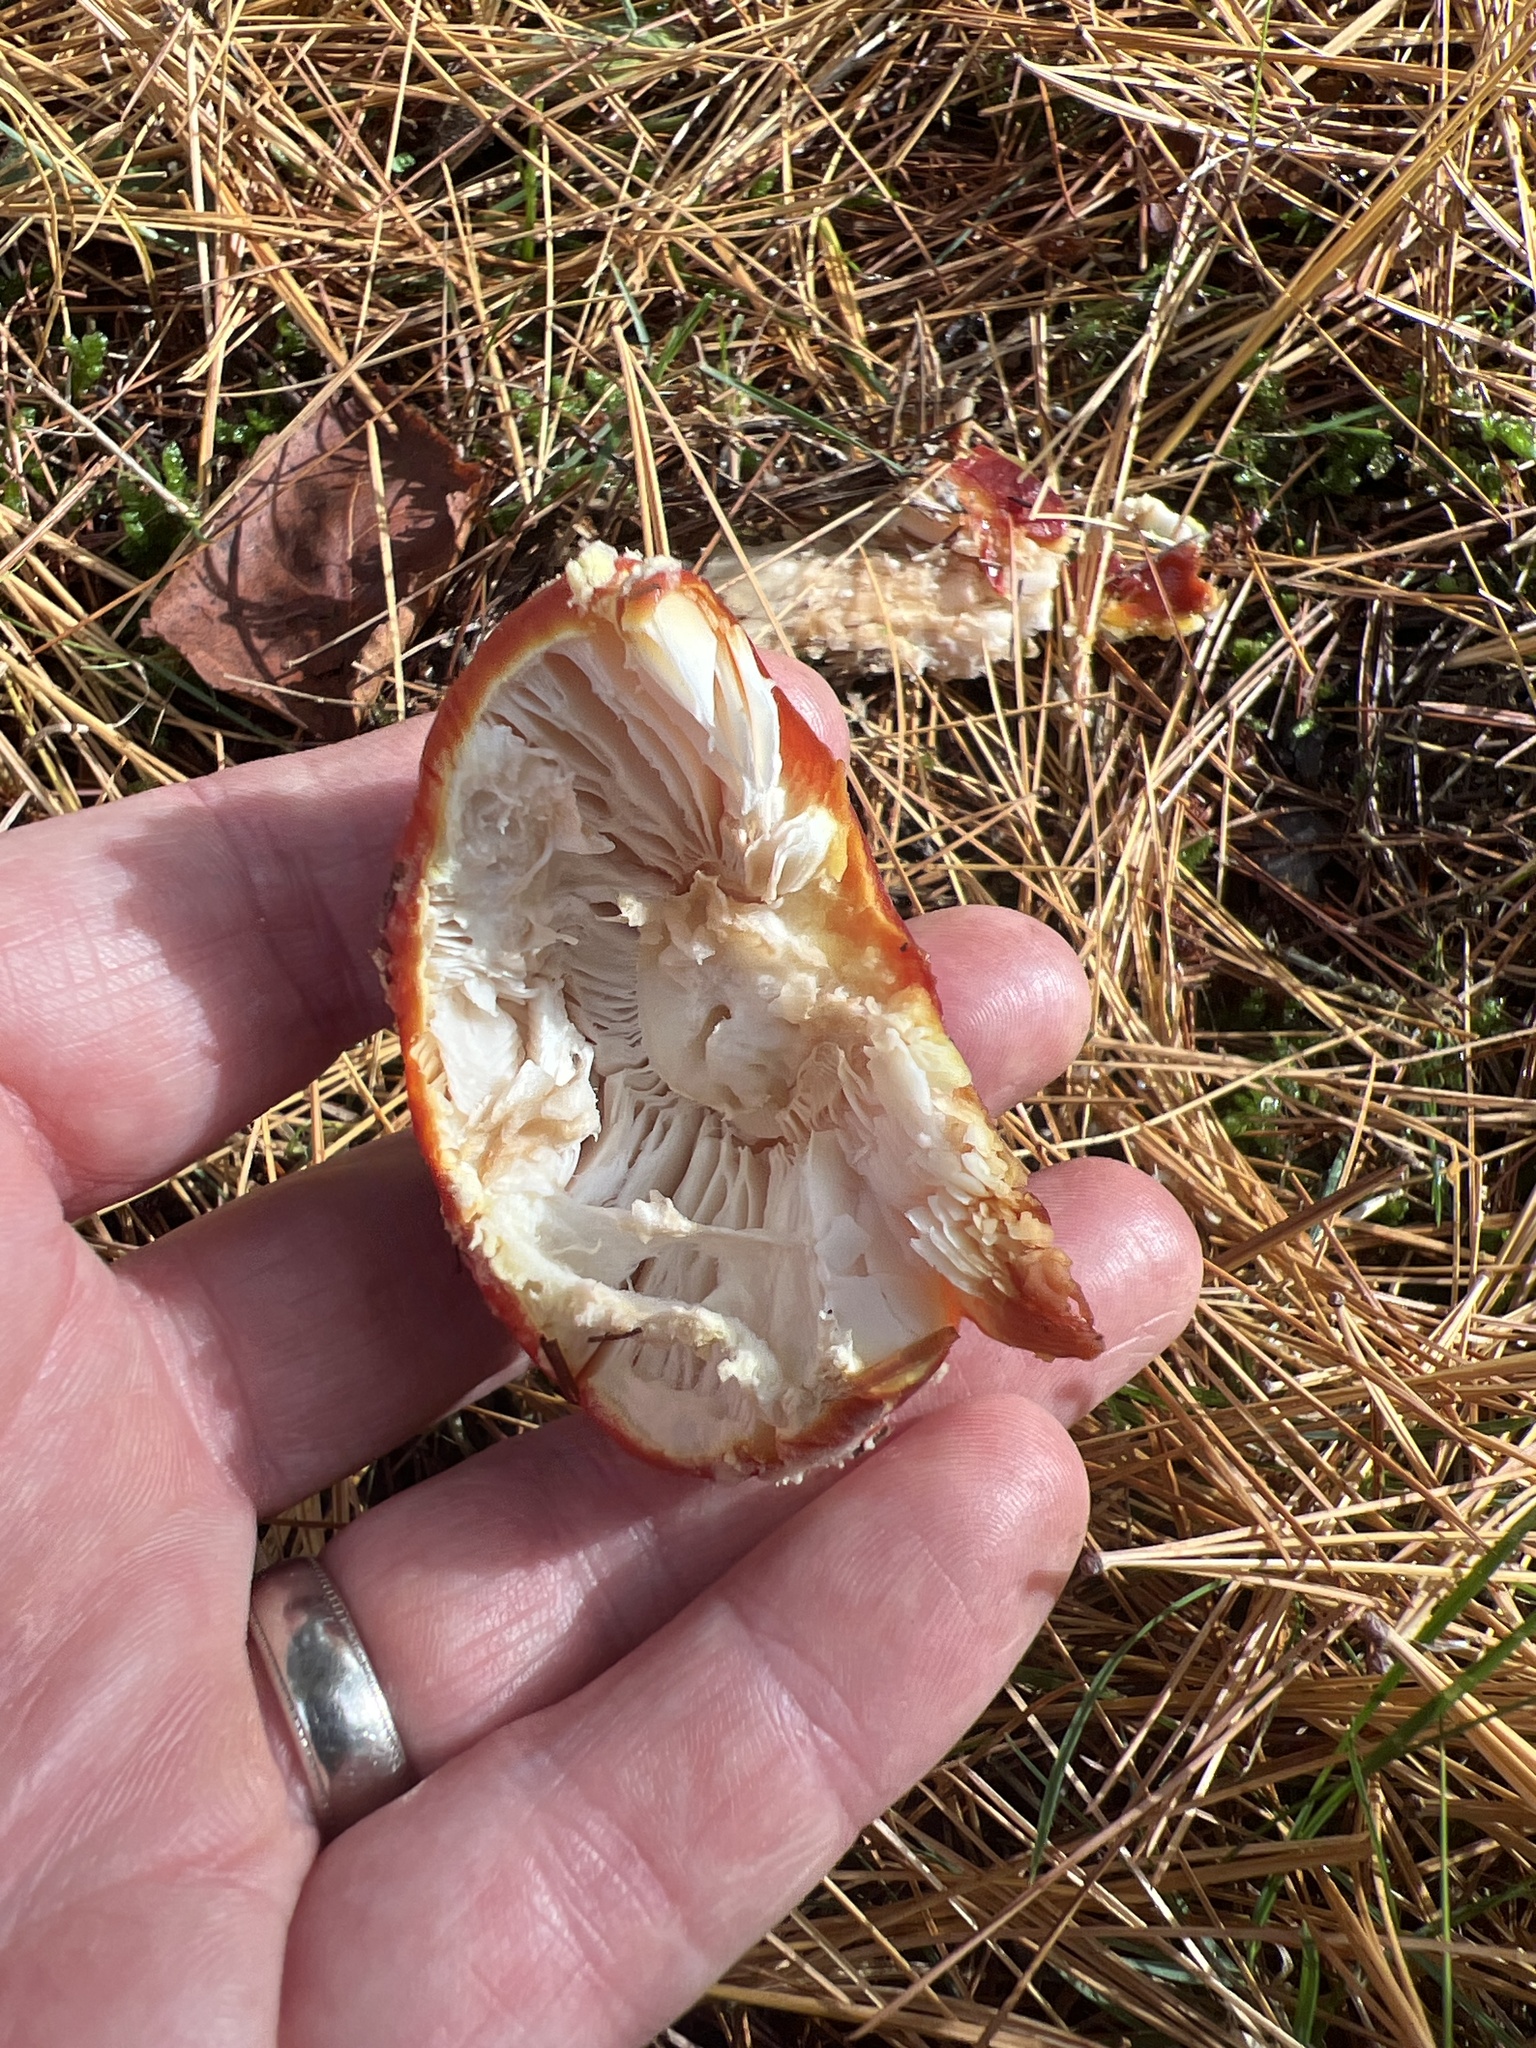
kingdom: Fungi
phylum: Basidiomycota
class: Agaricomycetes
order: Agaricales
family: Amanitaceae
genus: Amanita
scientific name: Amanita muscaria
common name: Fly agaric
